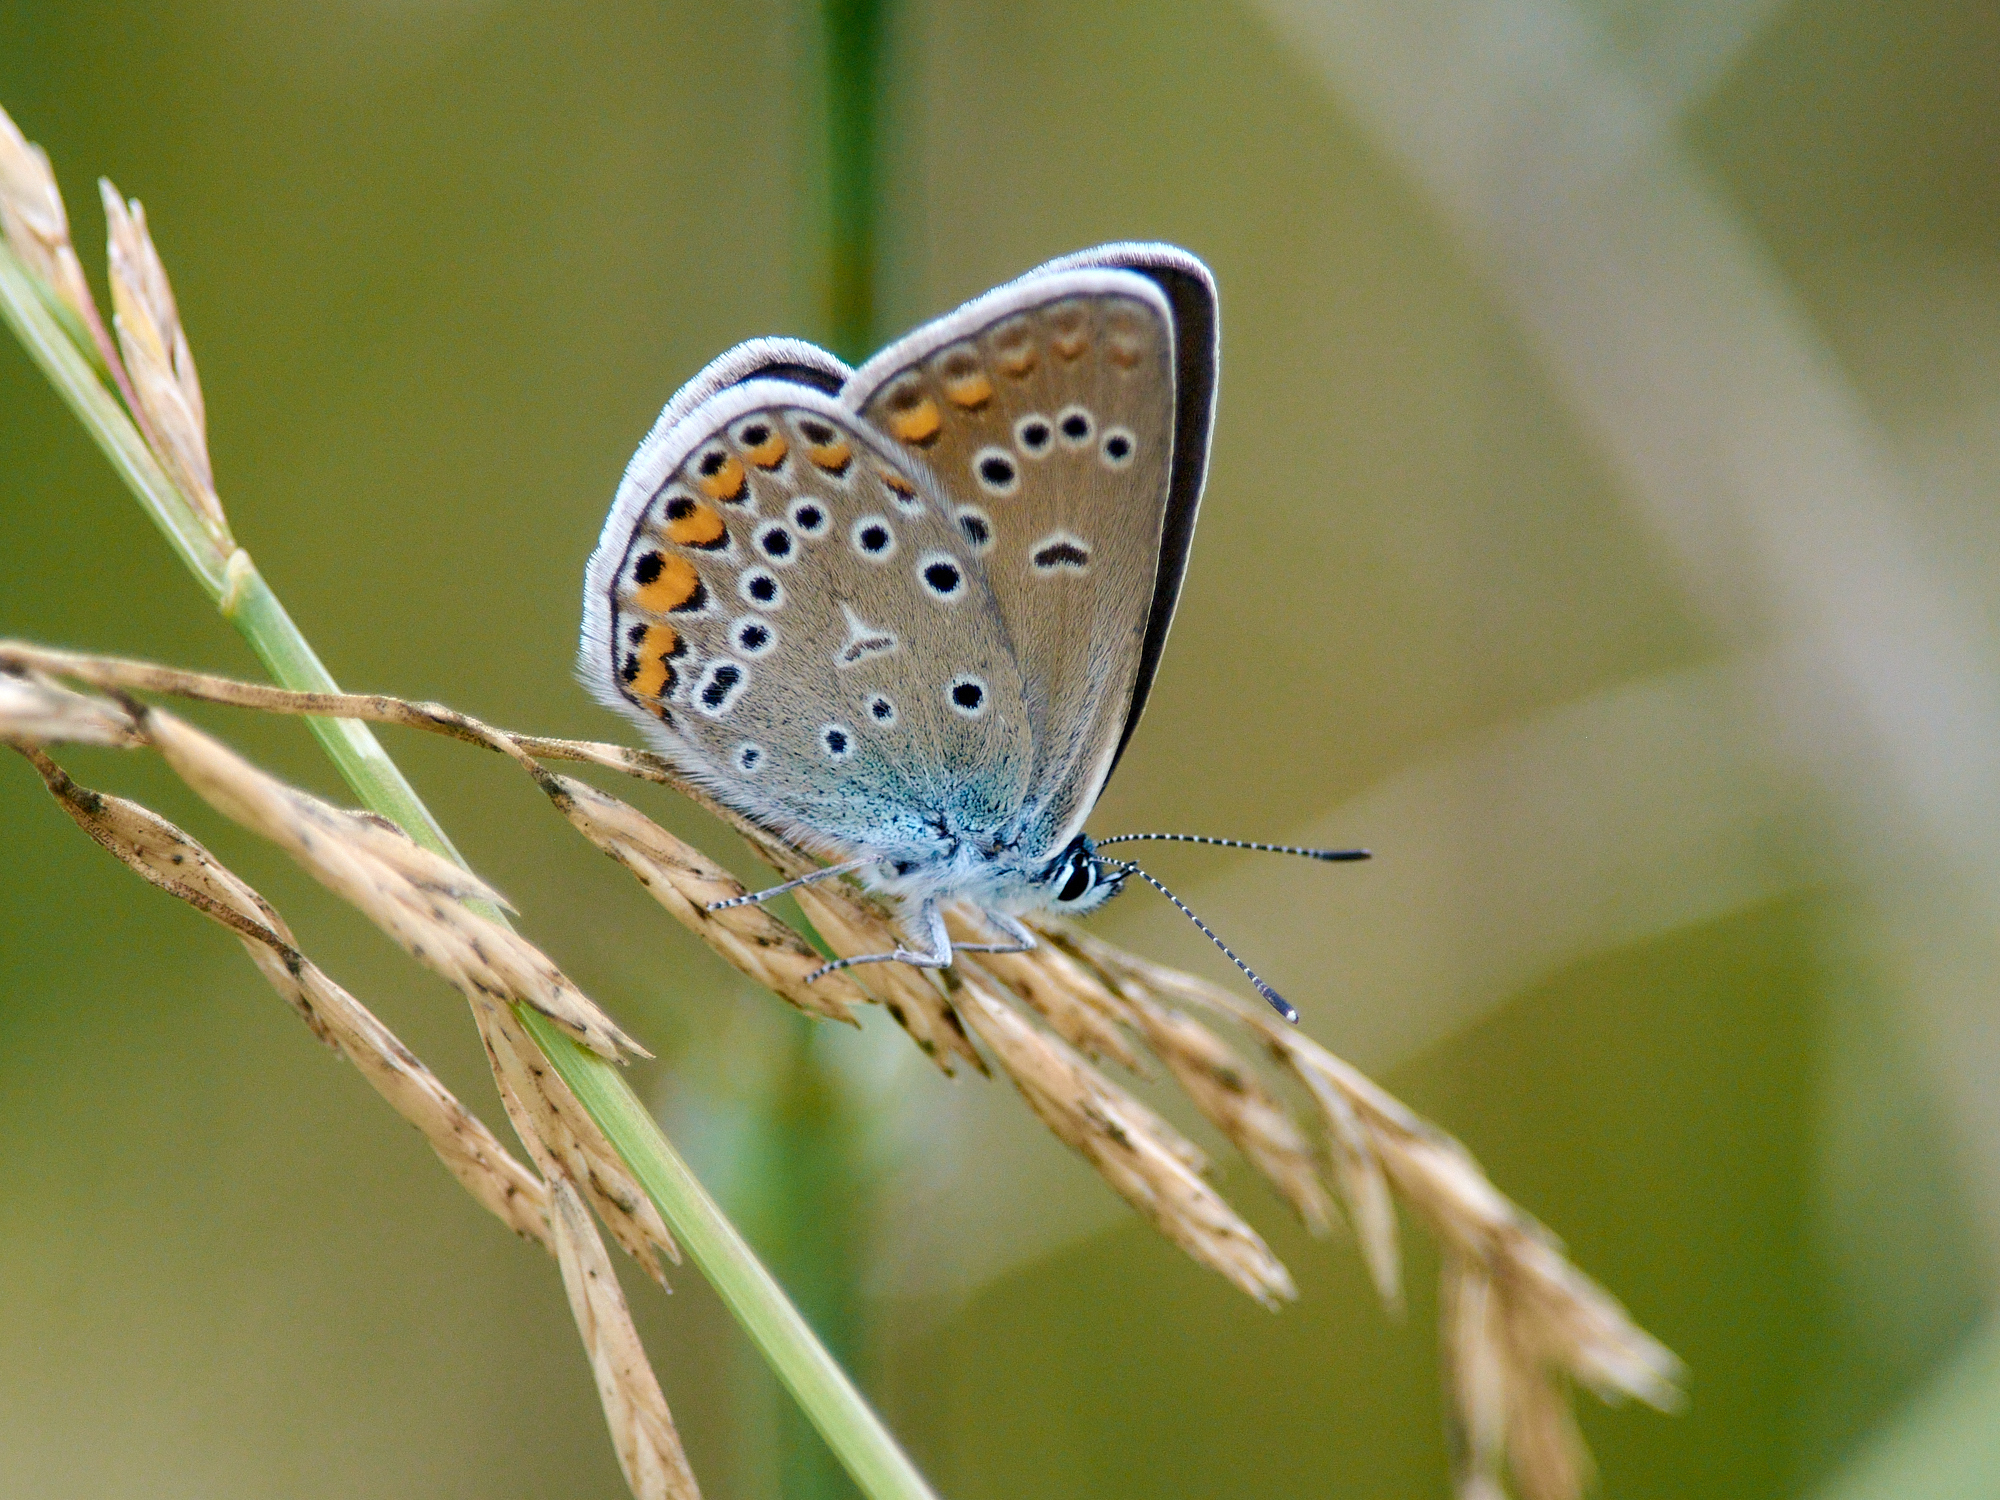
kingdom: Animalia
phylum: Arthropoda
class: Insecta
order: Lepidoptera
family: Lycaenidae
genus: Plebejus
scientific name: Plebejus amanda
